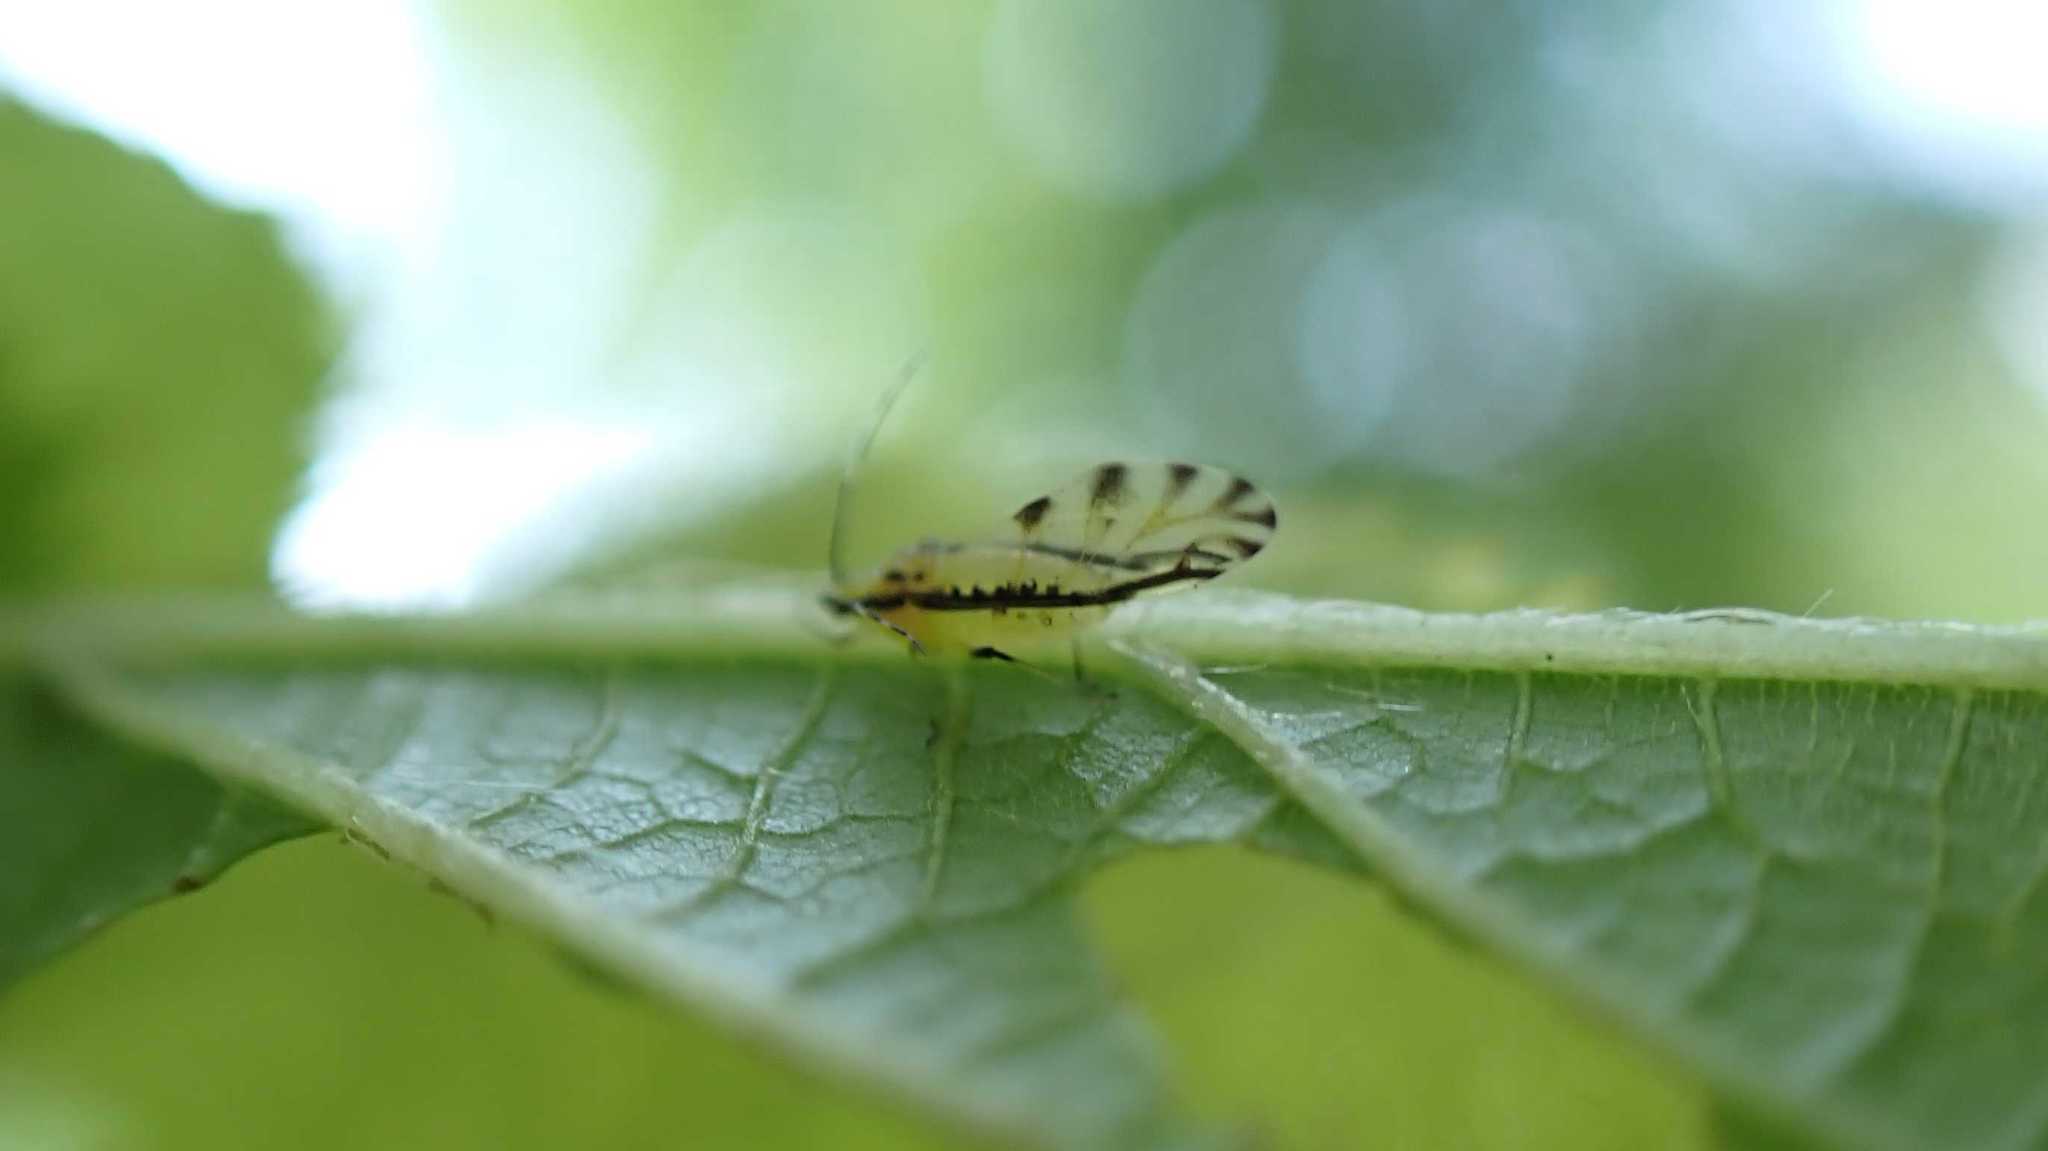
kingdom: Animalia
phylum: Arthropoda
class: Insecta
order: Hemiptera
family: Aphididae
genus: Eucallipterus
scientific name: Eucallipterus tiliae
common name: Aphid
